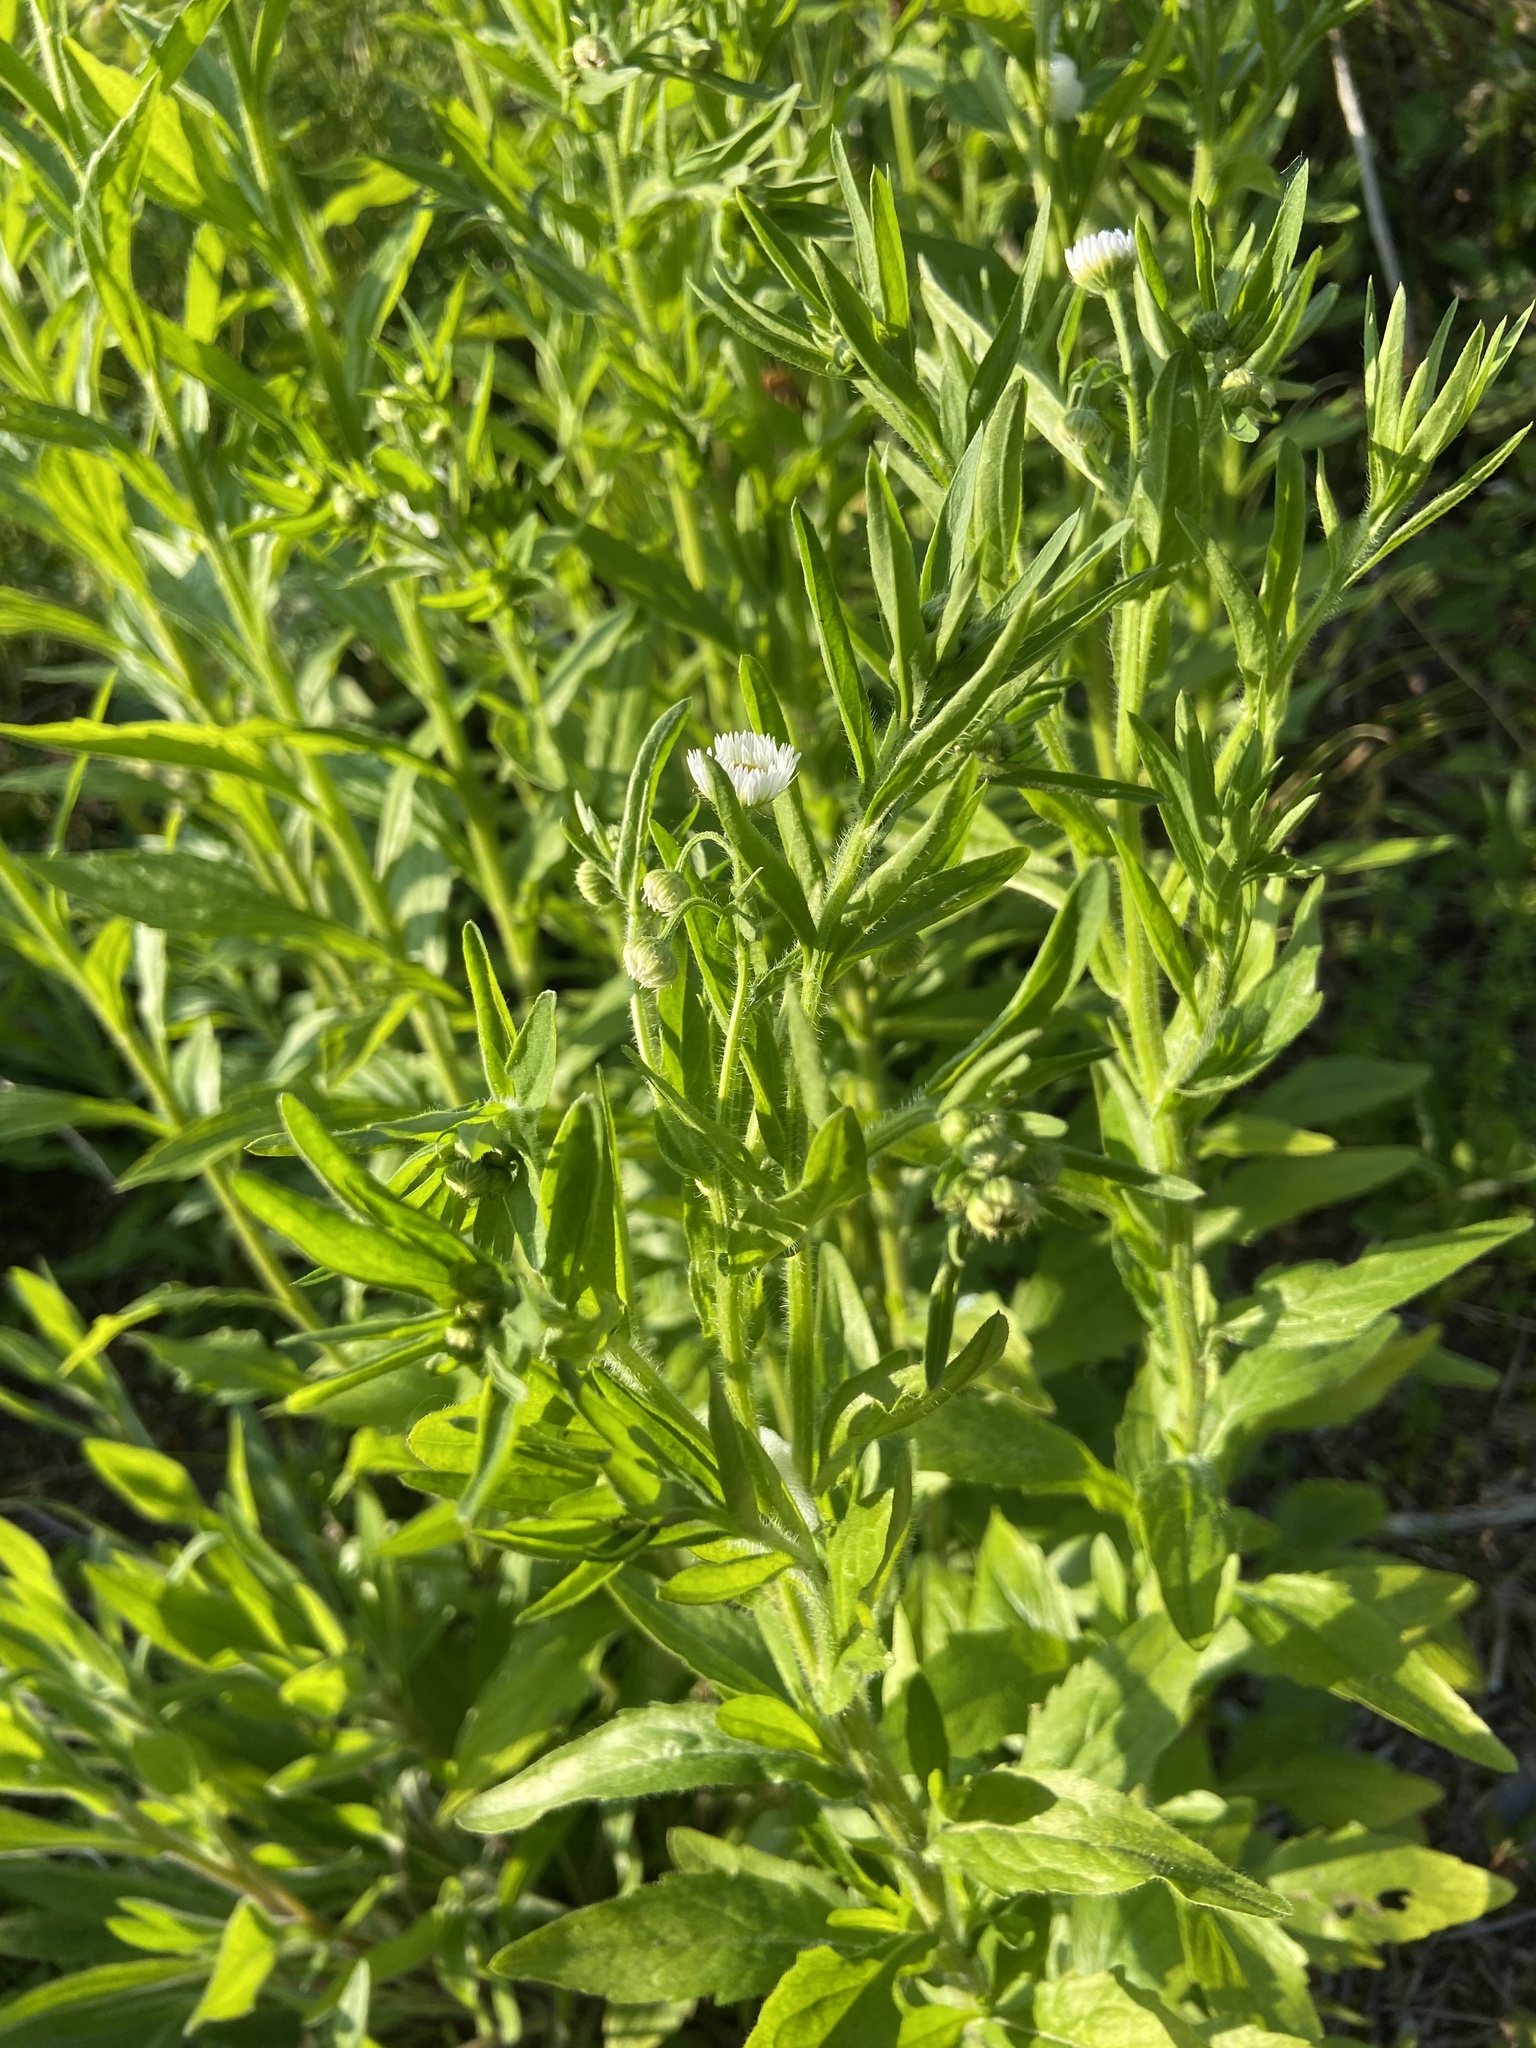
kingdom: Plantae
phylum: Tracheophyta
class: Magnoliopsida
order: Asterales
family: Asteraceae
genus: Erigeron
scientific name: Erigeron annuus
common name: Tall fleabane
